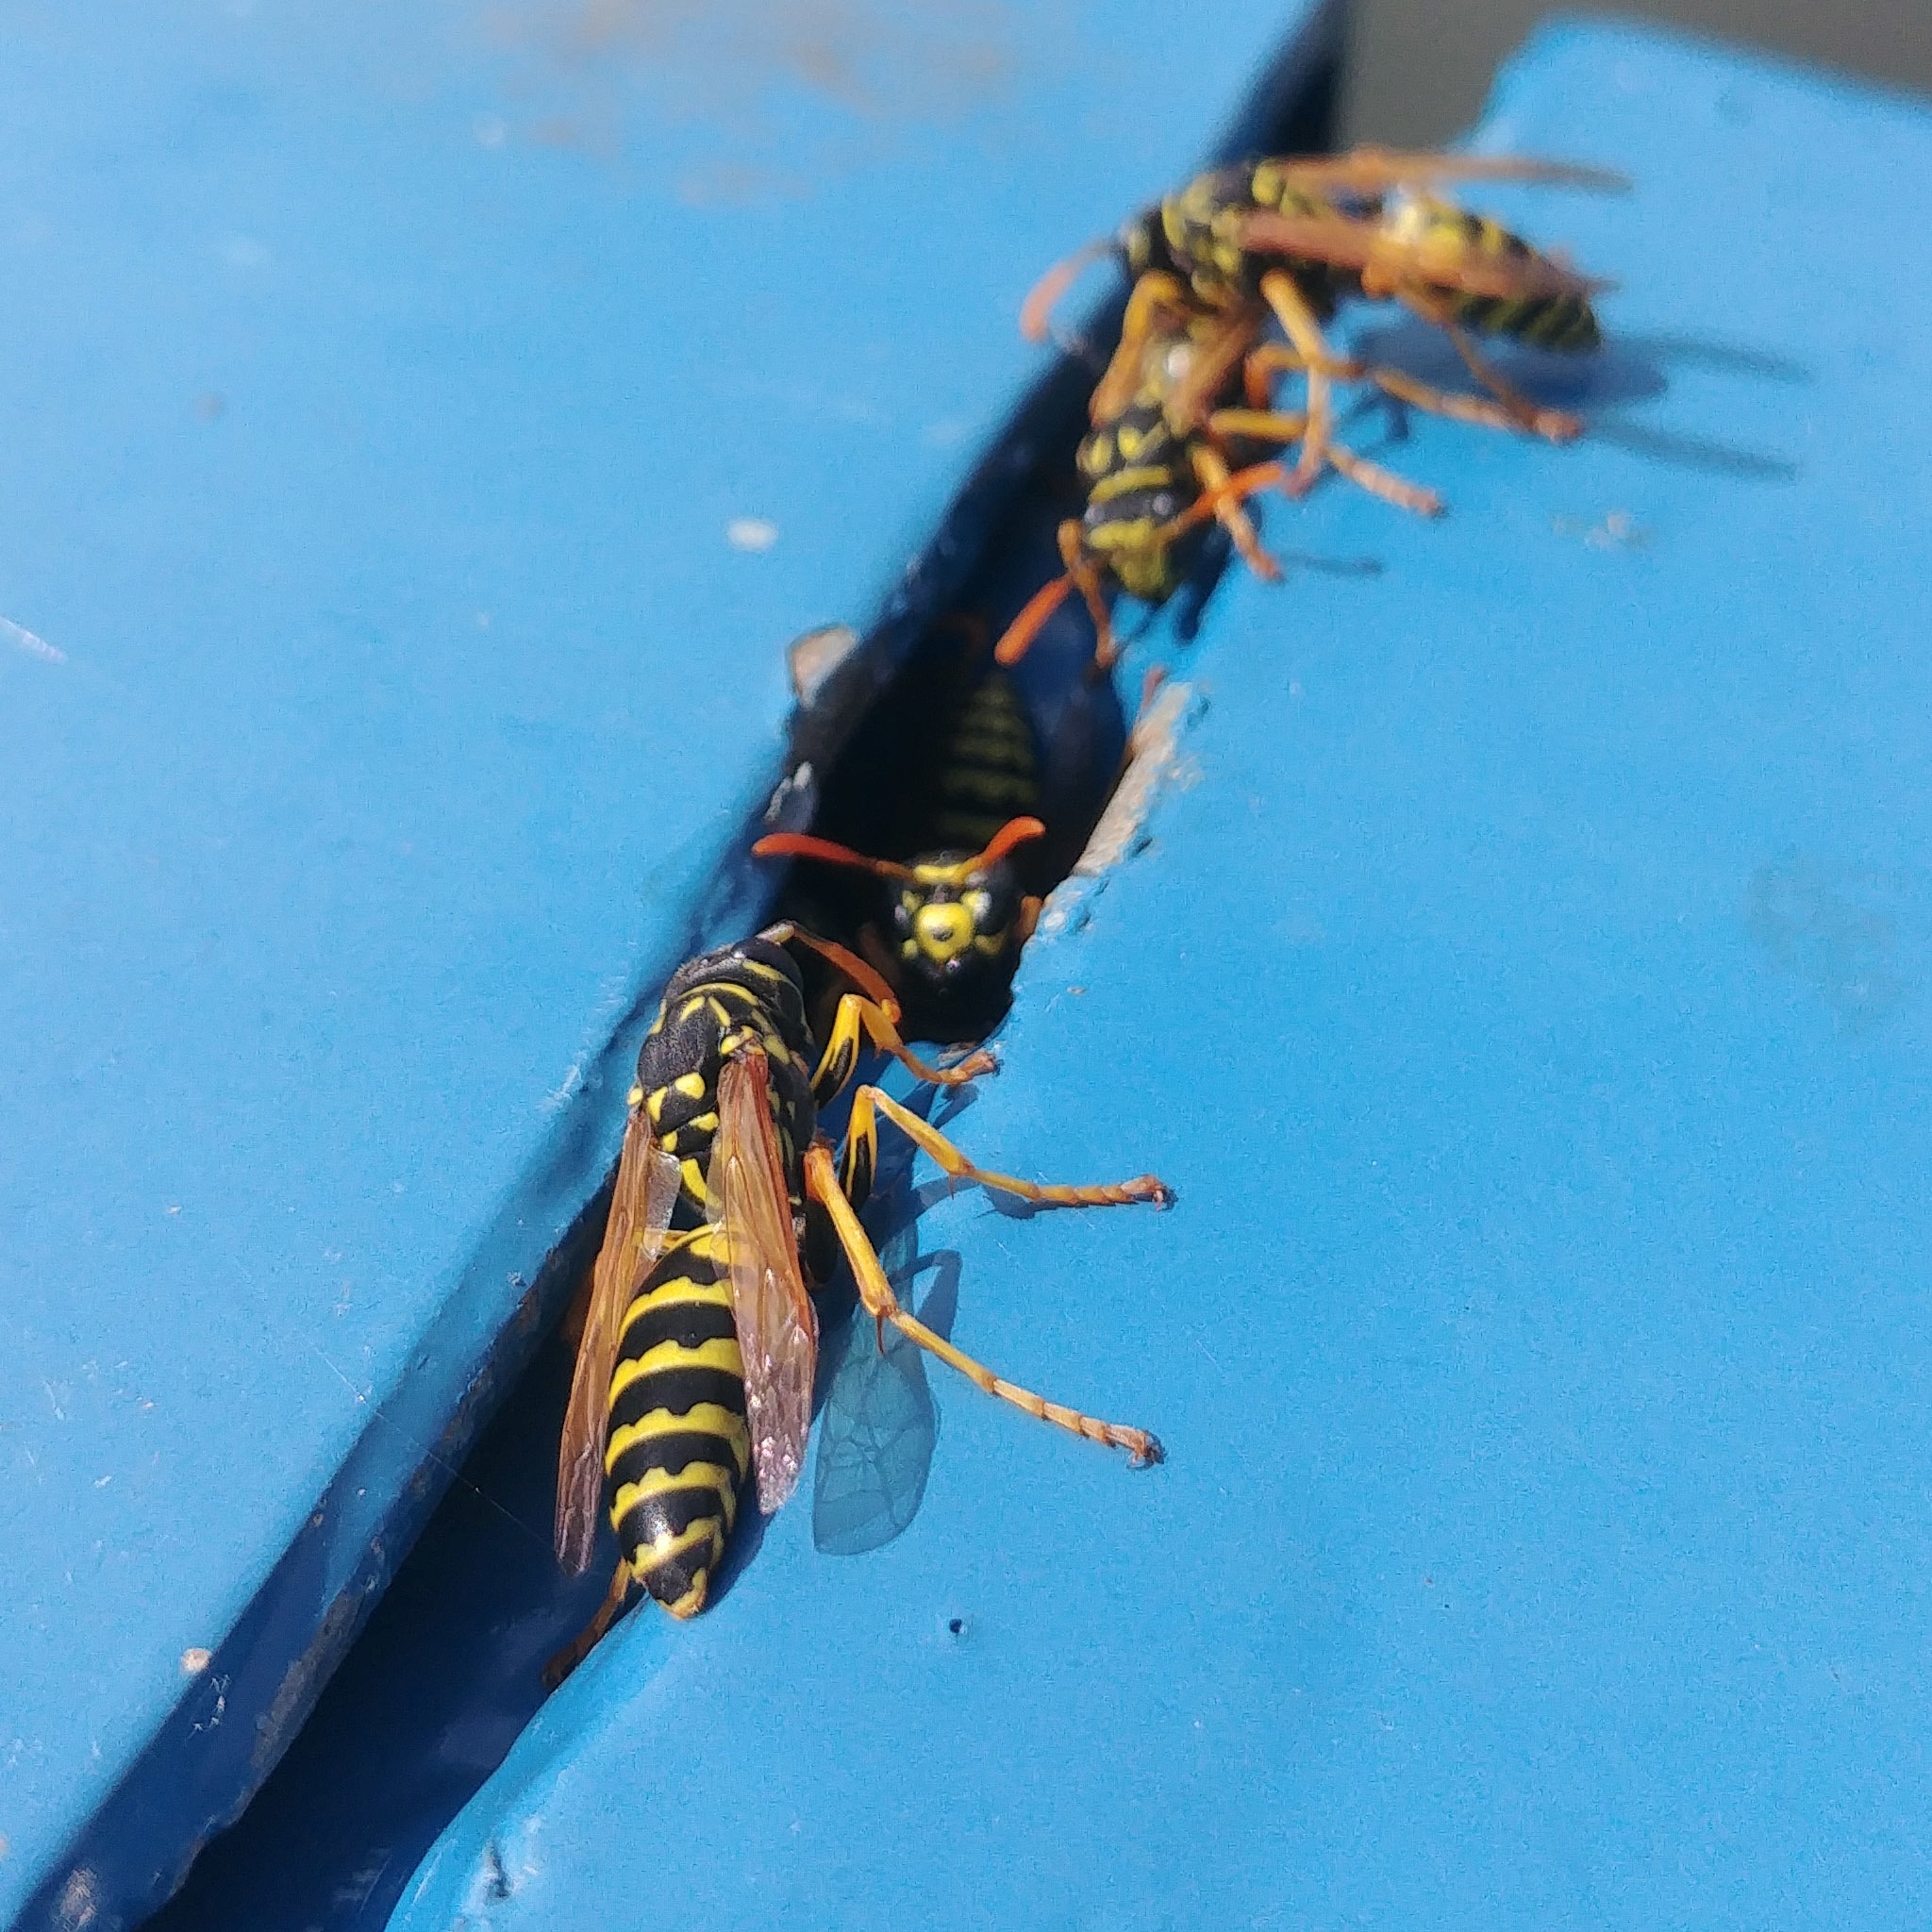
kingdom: Animalia
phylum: Arthropoda
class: Insecta
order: Hymenoptera
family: Eumenidae
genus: Polistes
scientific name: Polistes dominula
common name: Paper wasp
